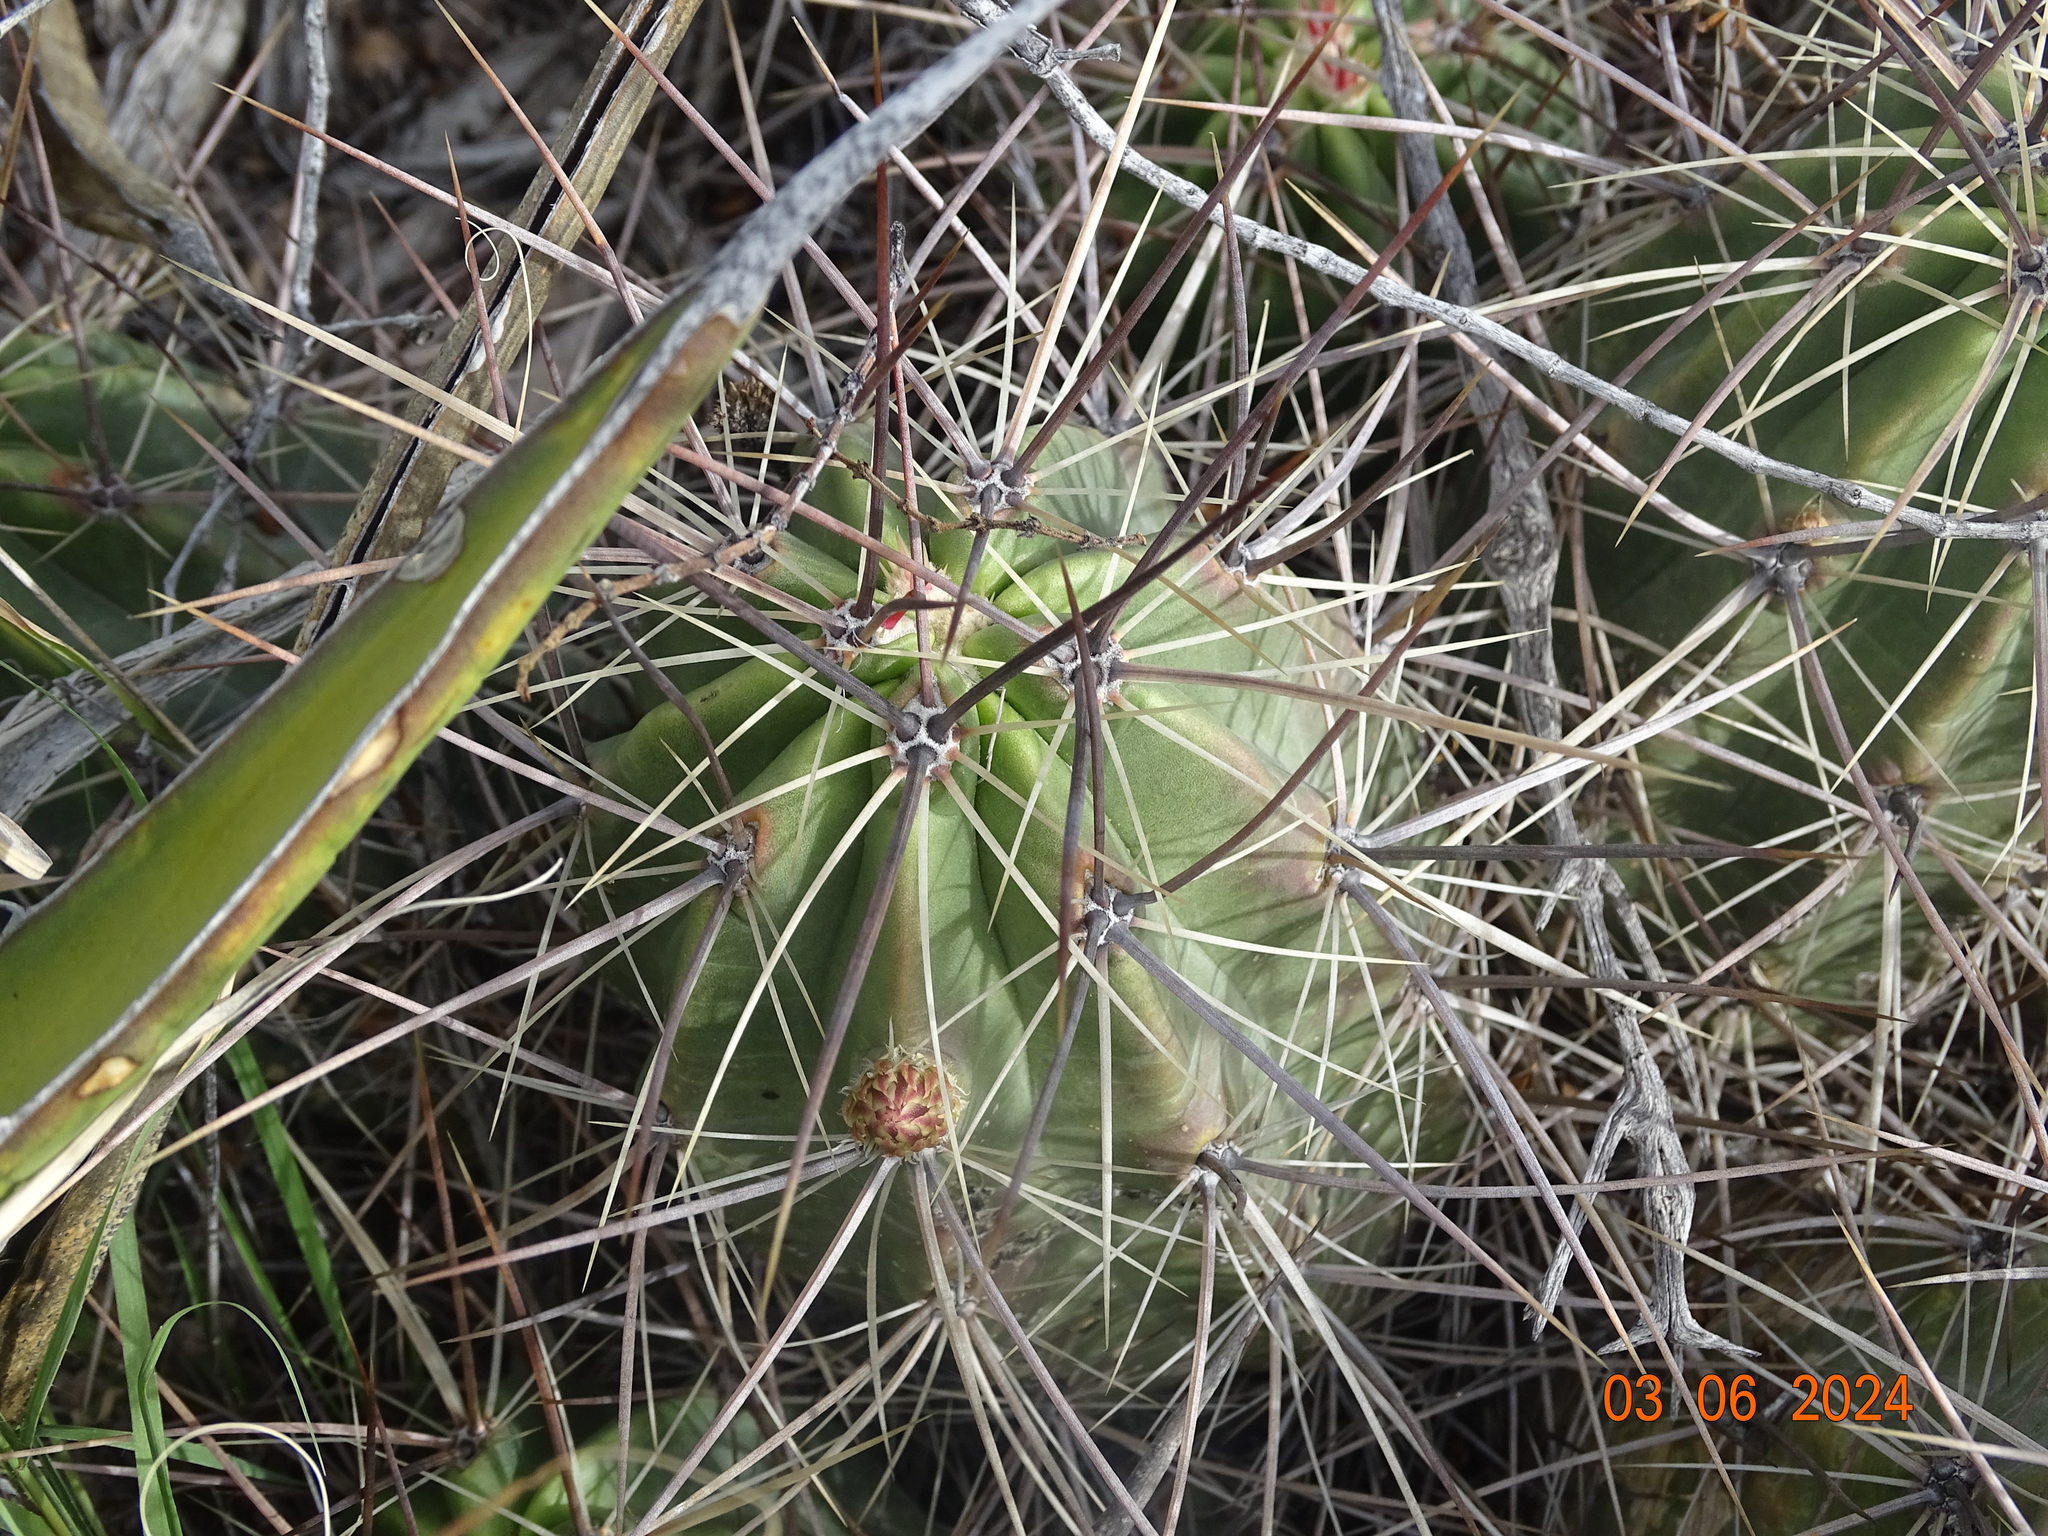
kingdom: Plantae
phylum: Tracheophyta
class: Magnoliopsida
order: Caryophyllales
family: Cactaceae
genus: Echinocereus
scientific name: Echinocereus enneacanthus
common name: Pitaya
